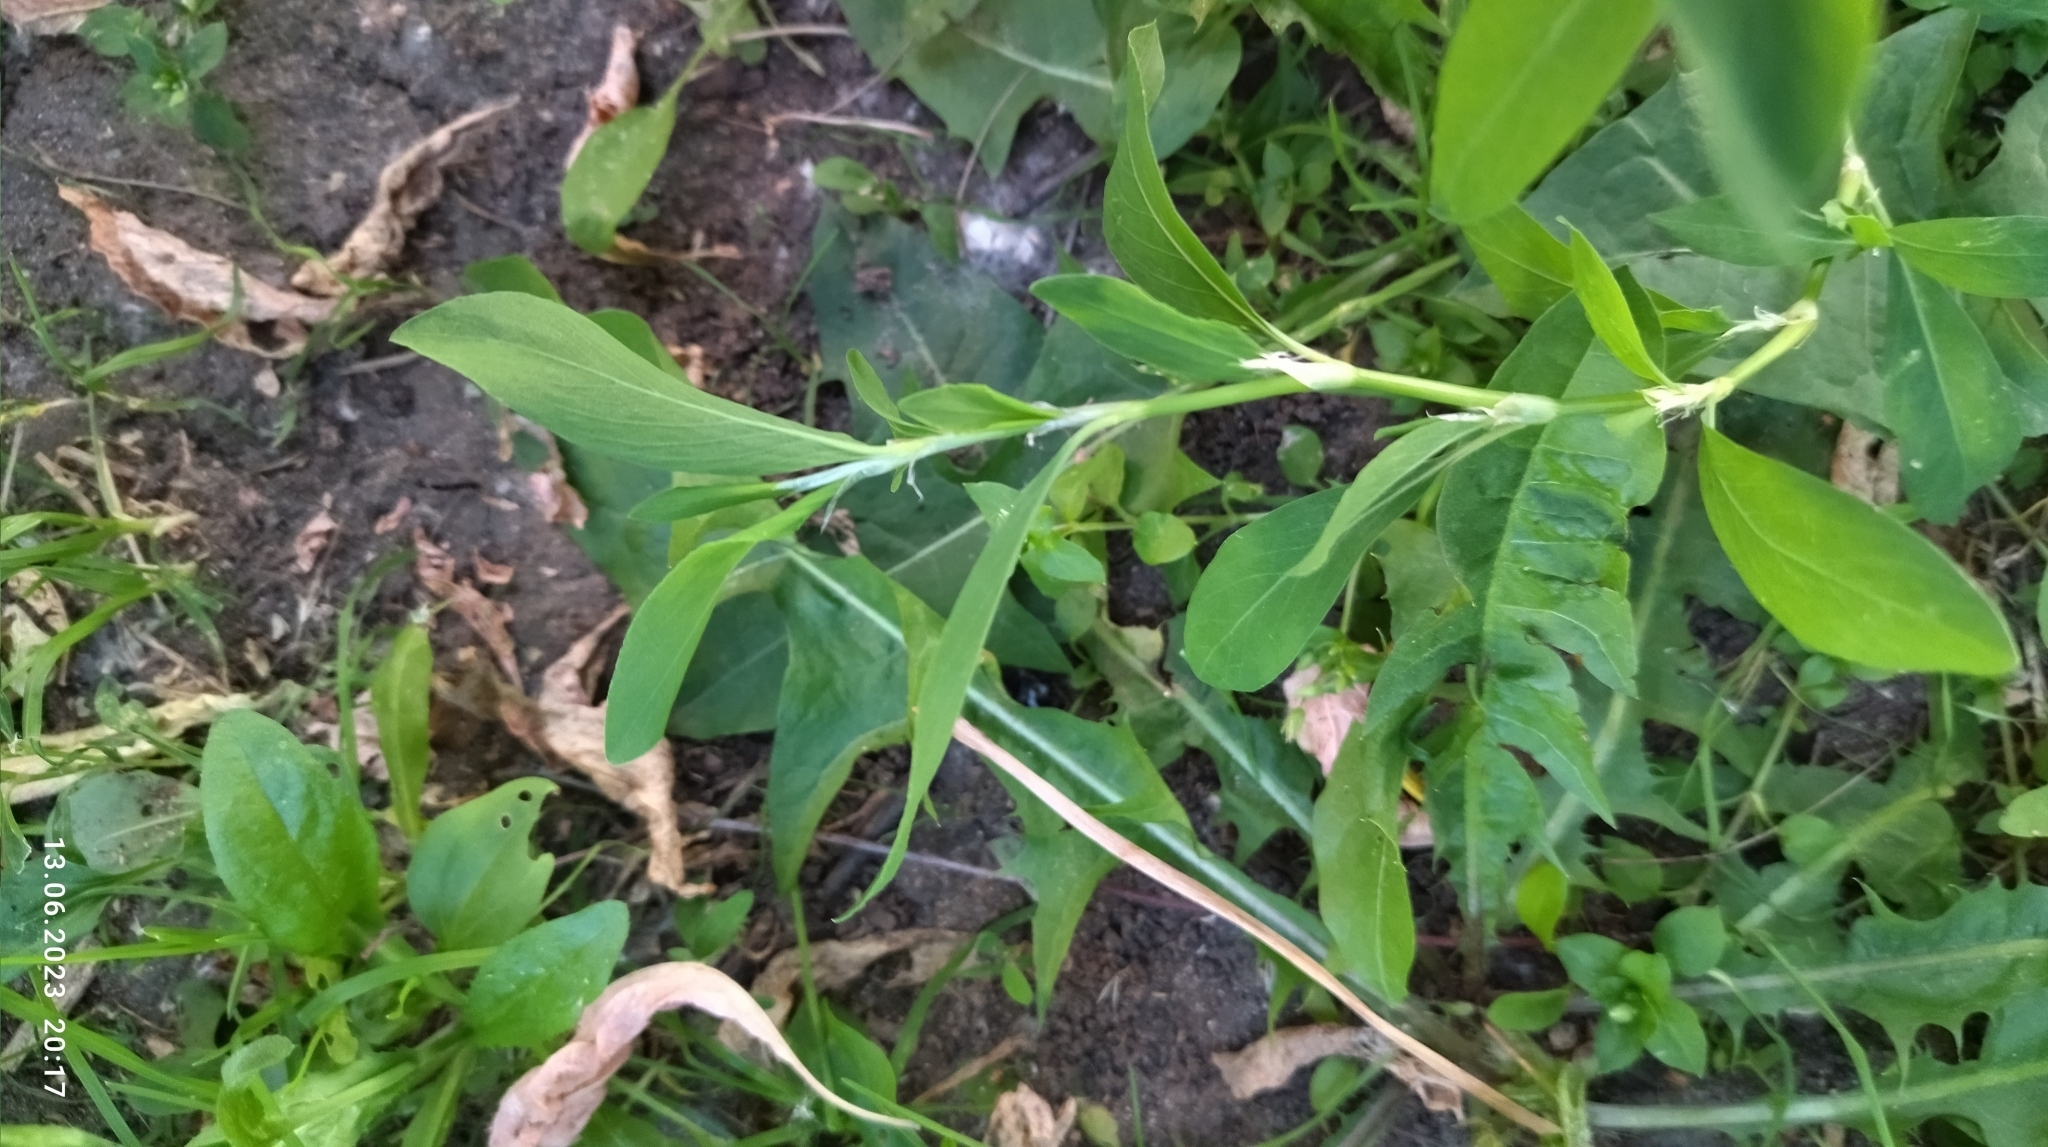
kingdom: Plantae
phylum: Tracheophyta
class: Magnoliopsida
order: Caryophyllales
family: Polygonaceae
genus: Polygonum
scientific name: Polygonum
